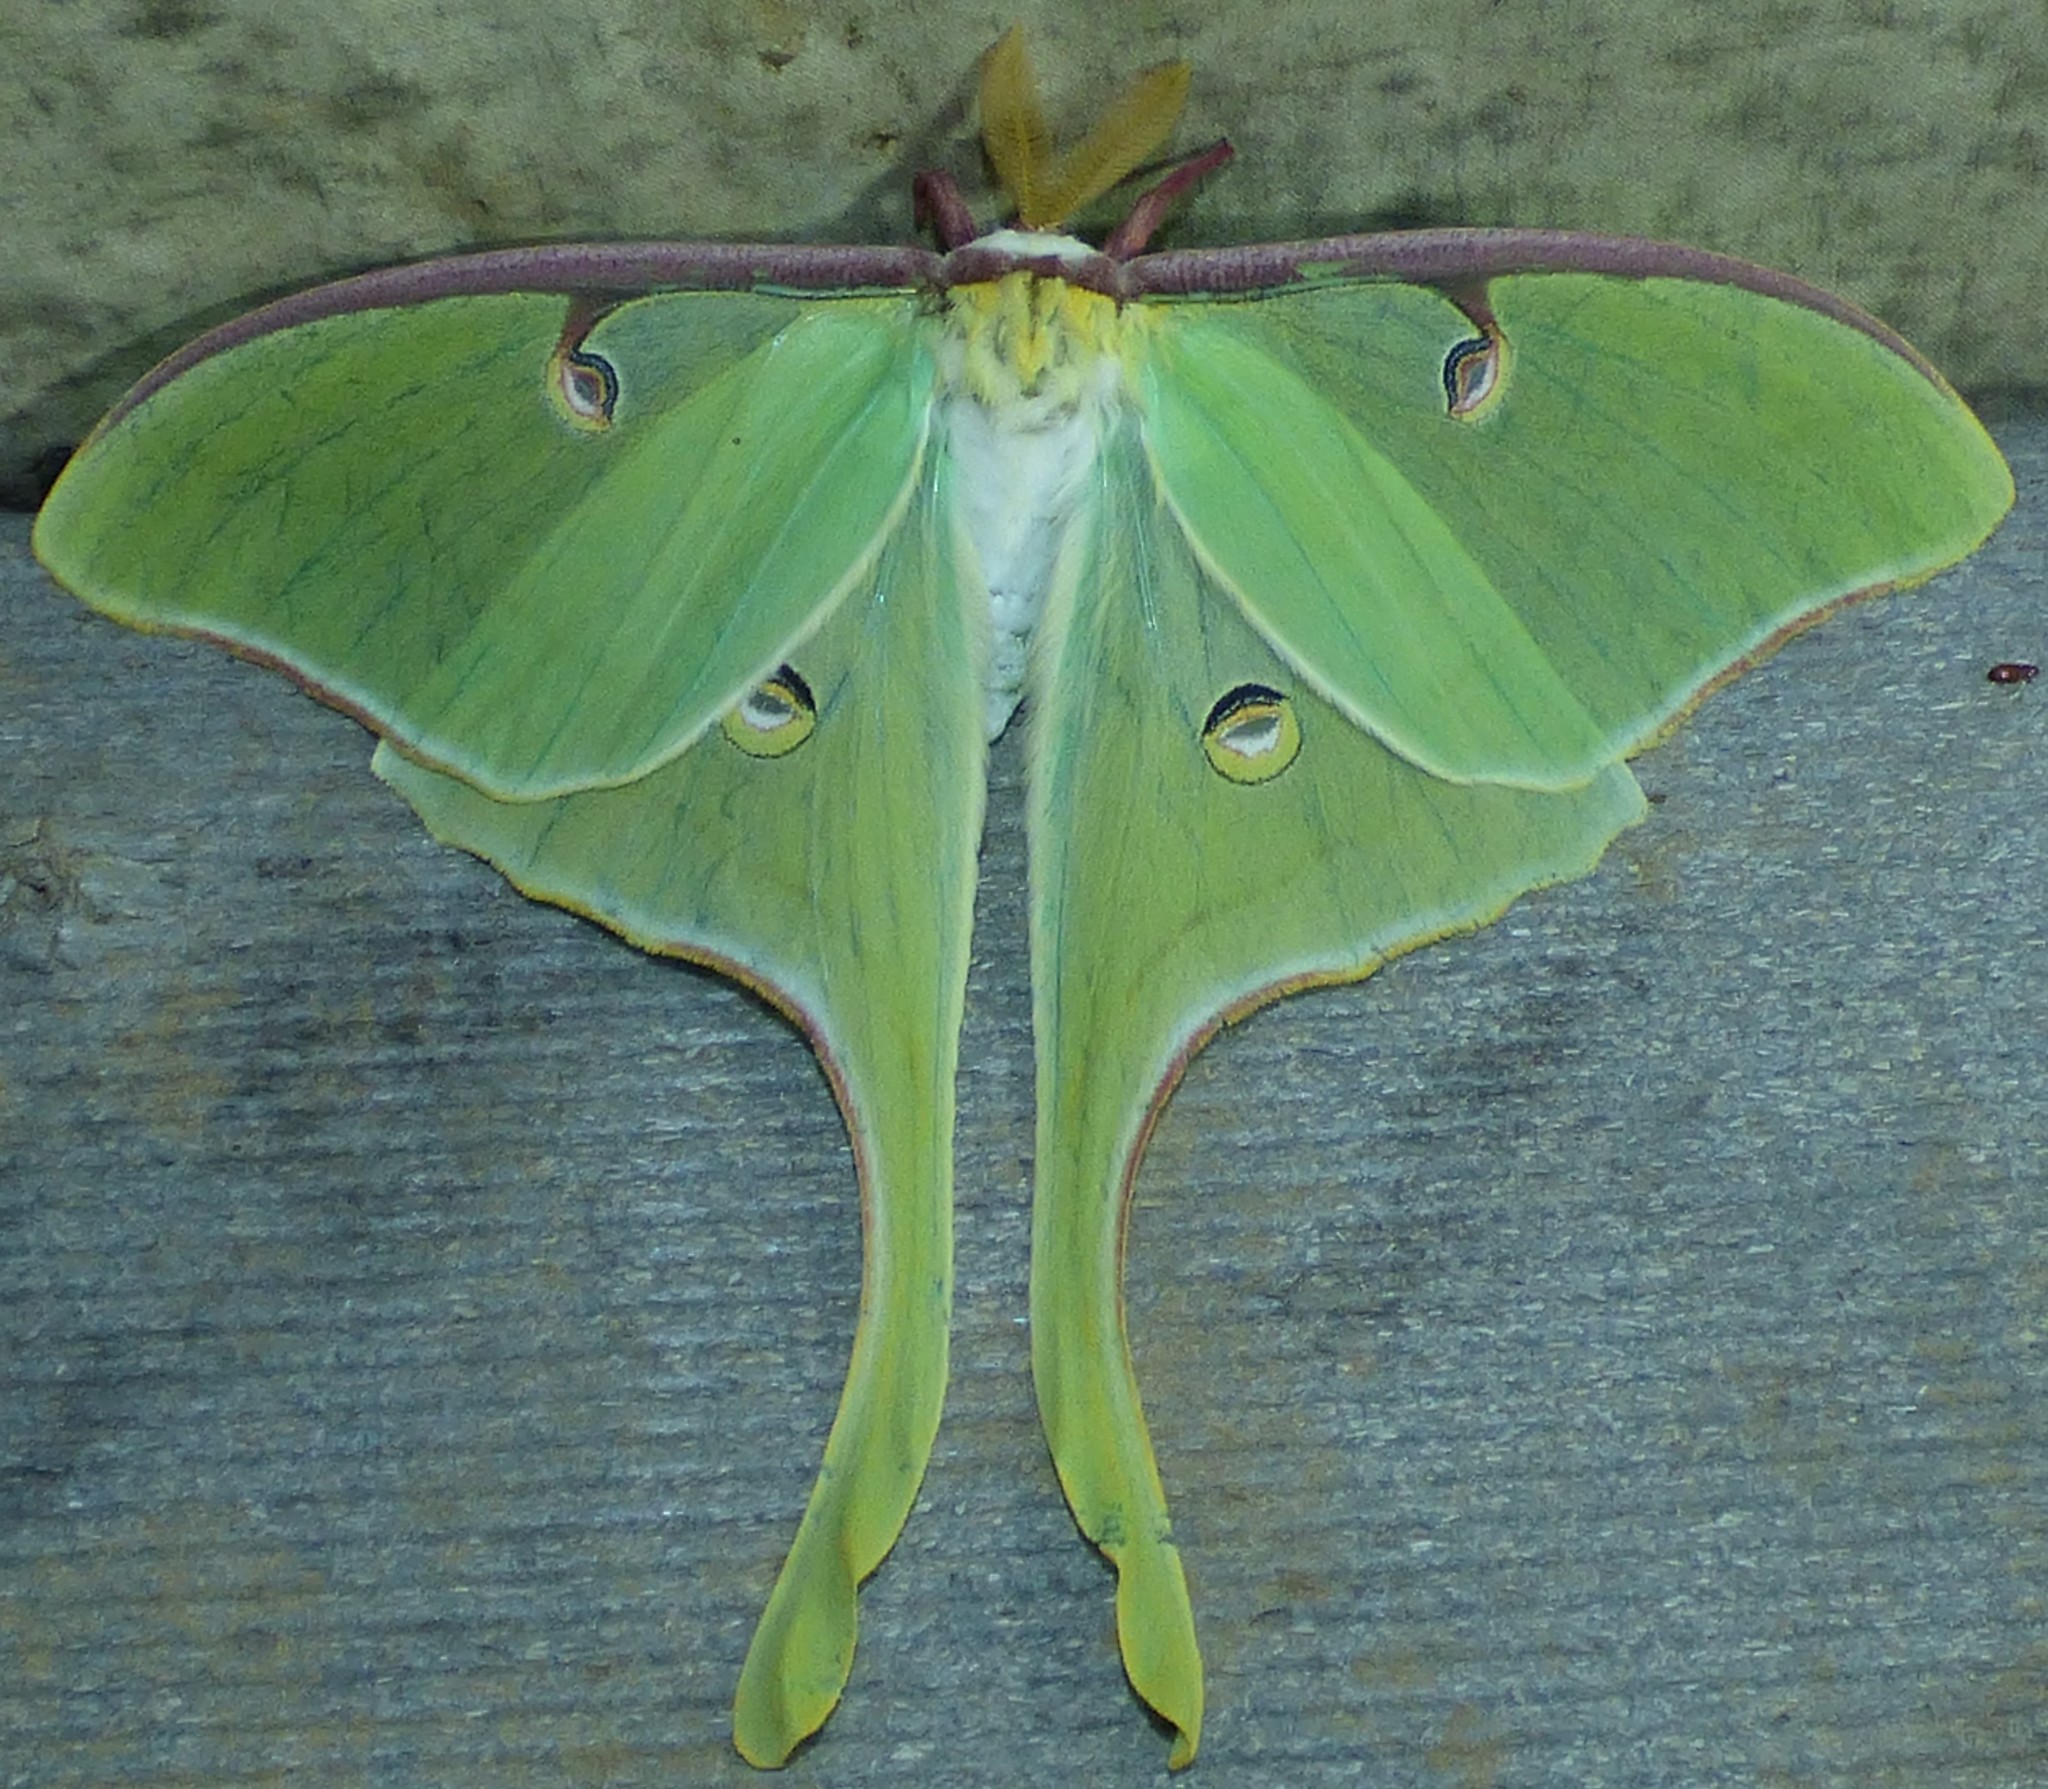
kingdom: Animalia
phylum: Arthropoda
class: Insecta
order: Lepidoptera
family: Saturniidae
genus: Actias
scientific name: Actias luna
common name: Luna moth
